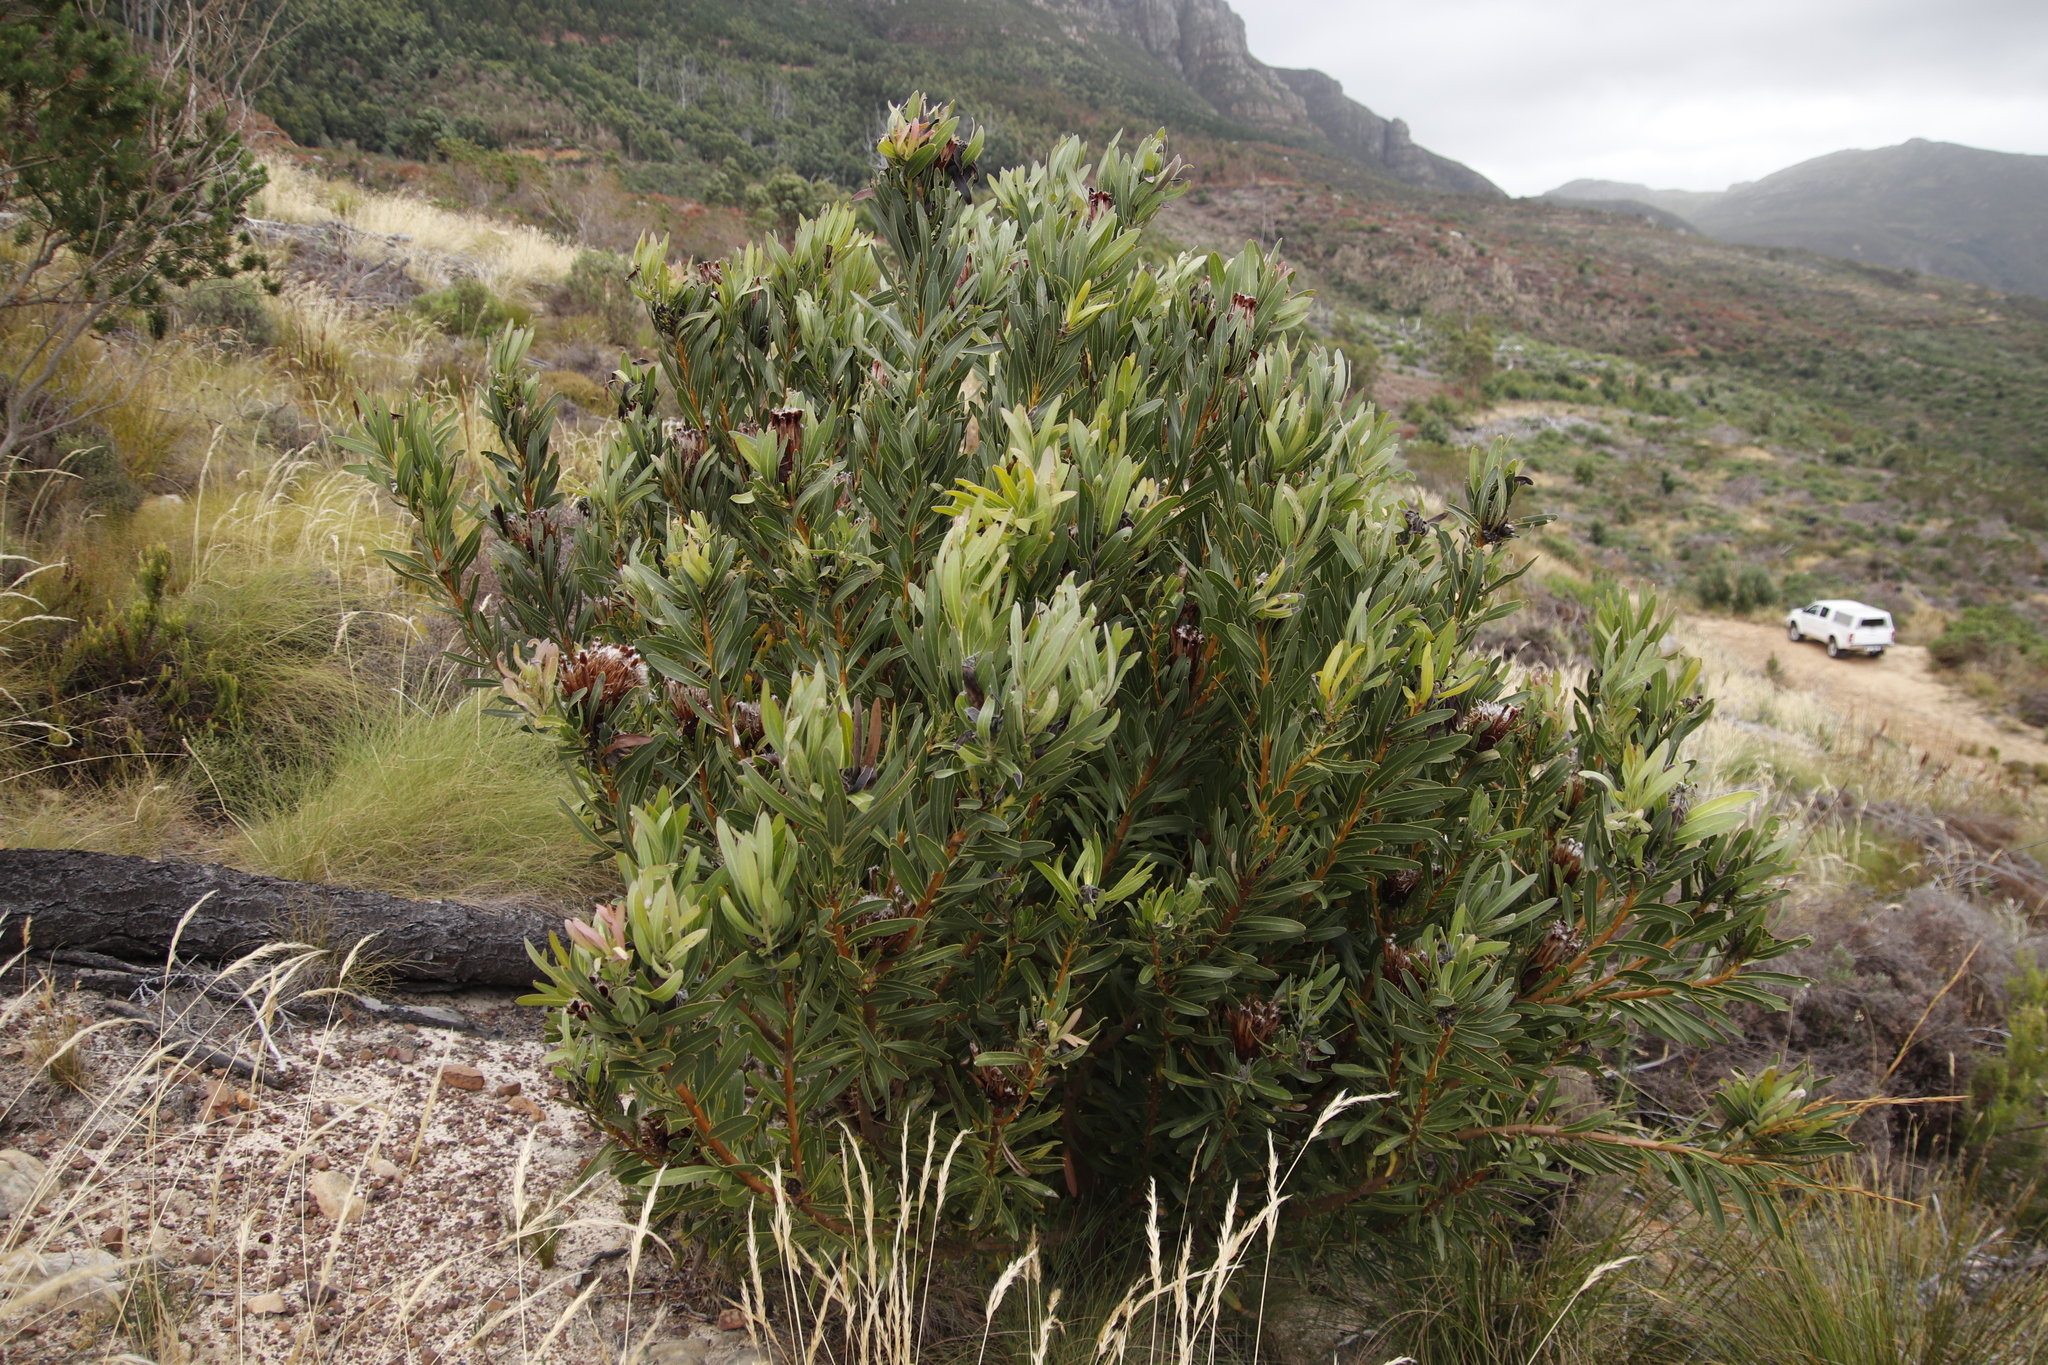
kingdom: Plantae
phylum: Tracheophyta
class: Magnoliopsida
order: Proteales
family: Proteaceae
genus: Protea
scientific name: Protea lepidocarpodendron
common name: Black-bearded protea
